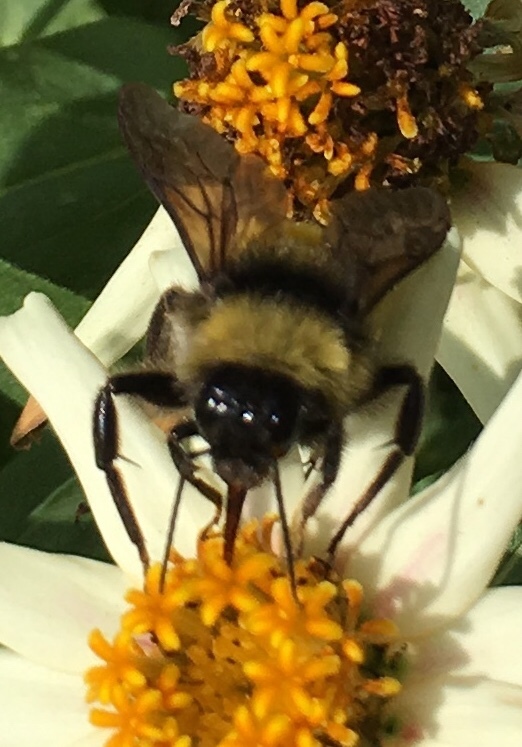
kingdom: Animalia
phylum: Arthropoda
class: Insecta
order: Hymenoptera
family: Apidae
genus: Bombus
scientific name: Bombus pensylvanicus
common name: Bumble bee
